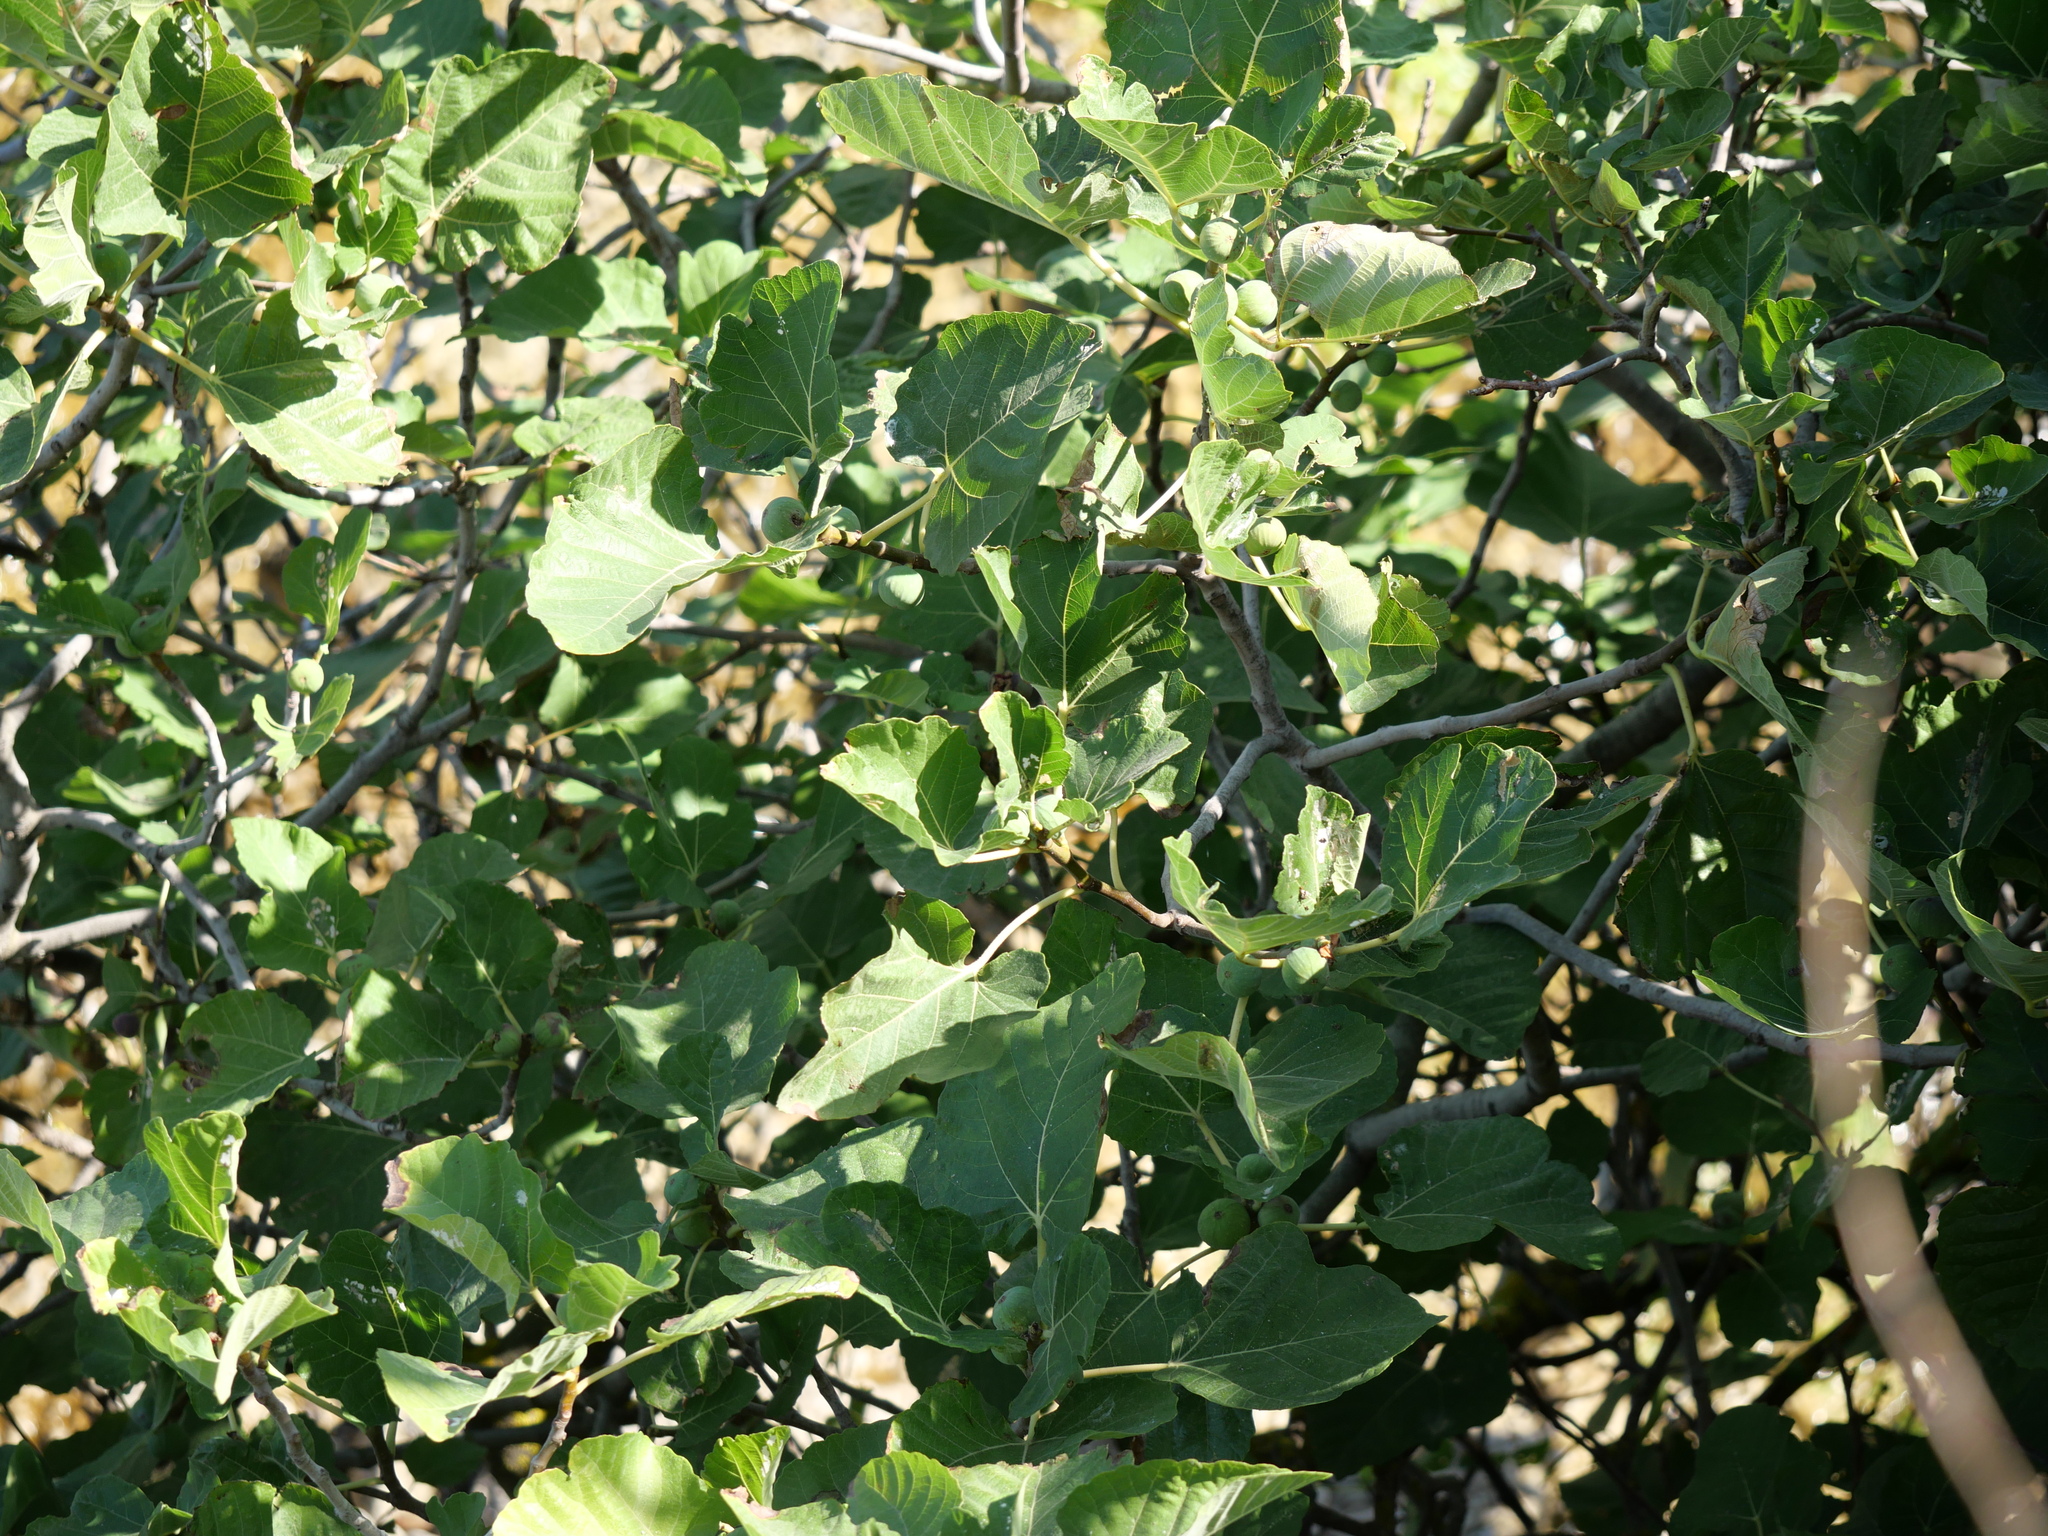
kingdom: Plantae
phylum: Tracheophyta
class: Magnoliopsida
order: Rosales
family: Moraceae
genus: Ficus
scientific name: Ficus carica
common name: Fig
